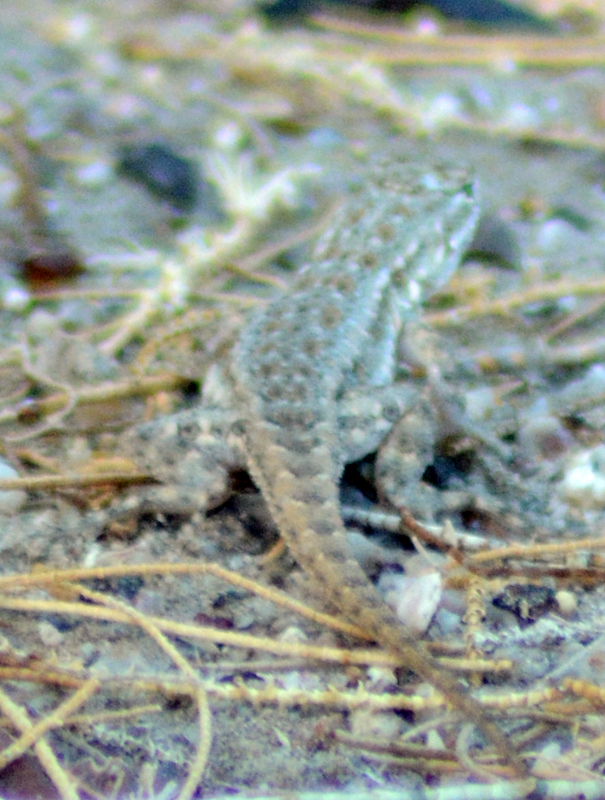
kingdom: Animalia
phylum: Chordata
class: Squamata
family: Phrynosomatidae
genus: Uta
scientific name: Uta stansburiana
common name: Side-blotched lizard
